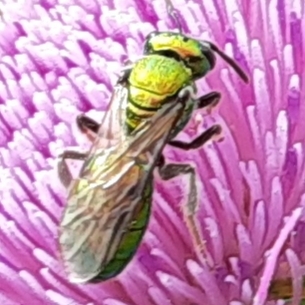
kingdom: Animalia
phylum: Arthropoda
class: Insecta
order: Hymenoptera
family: Halictidae
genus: Augochlora
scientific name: Augochlora pura
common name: Pure green sweat bee
